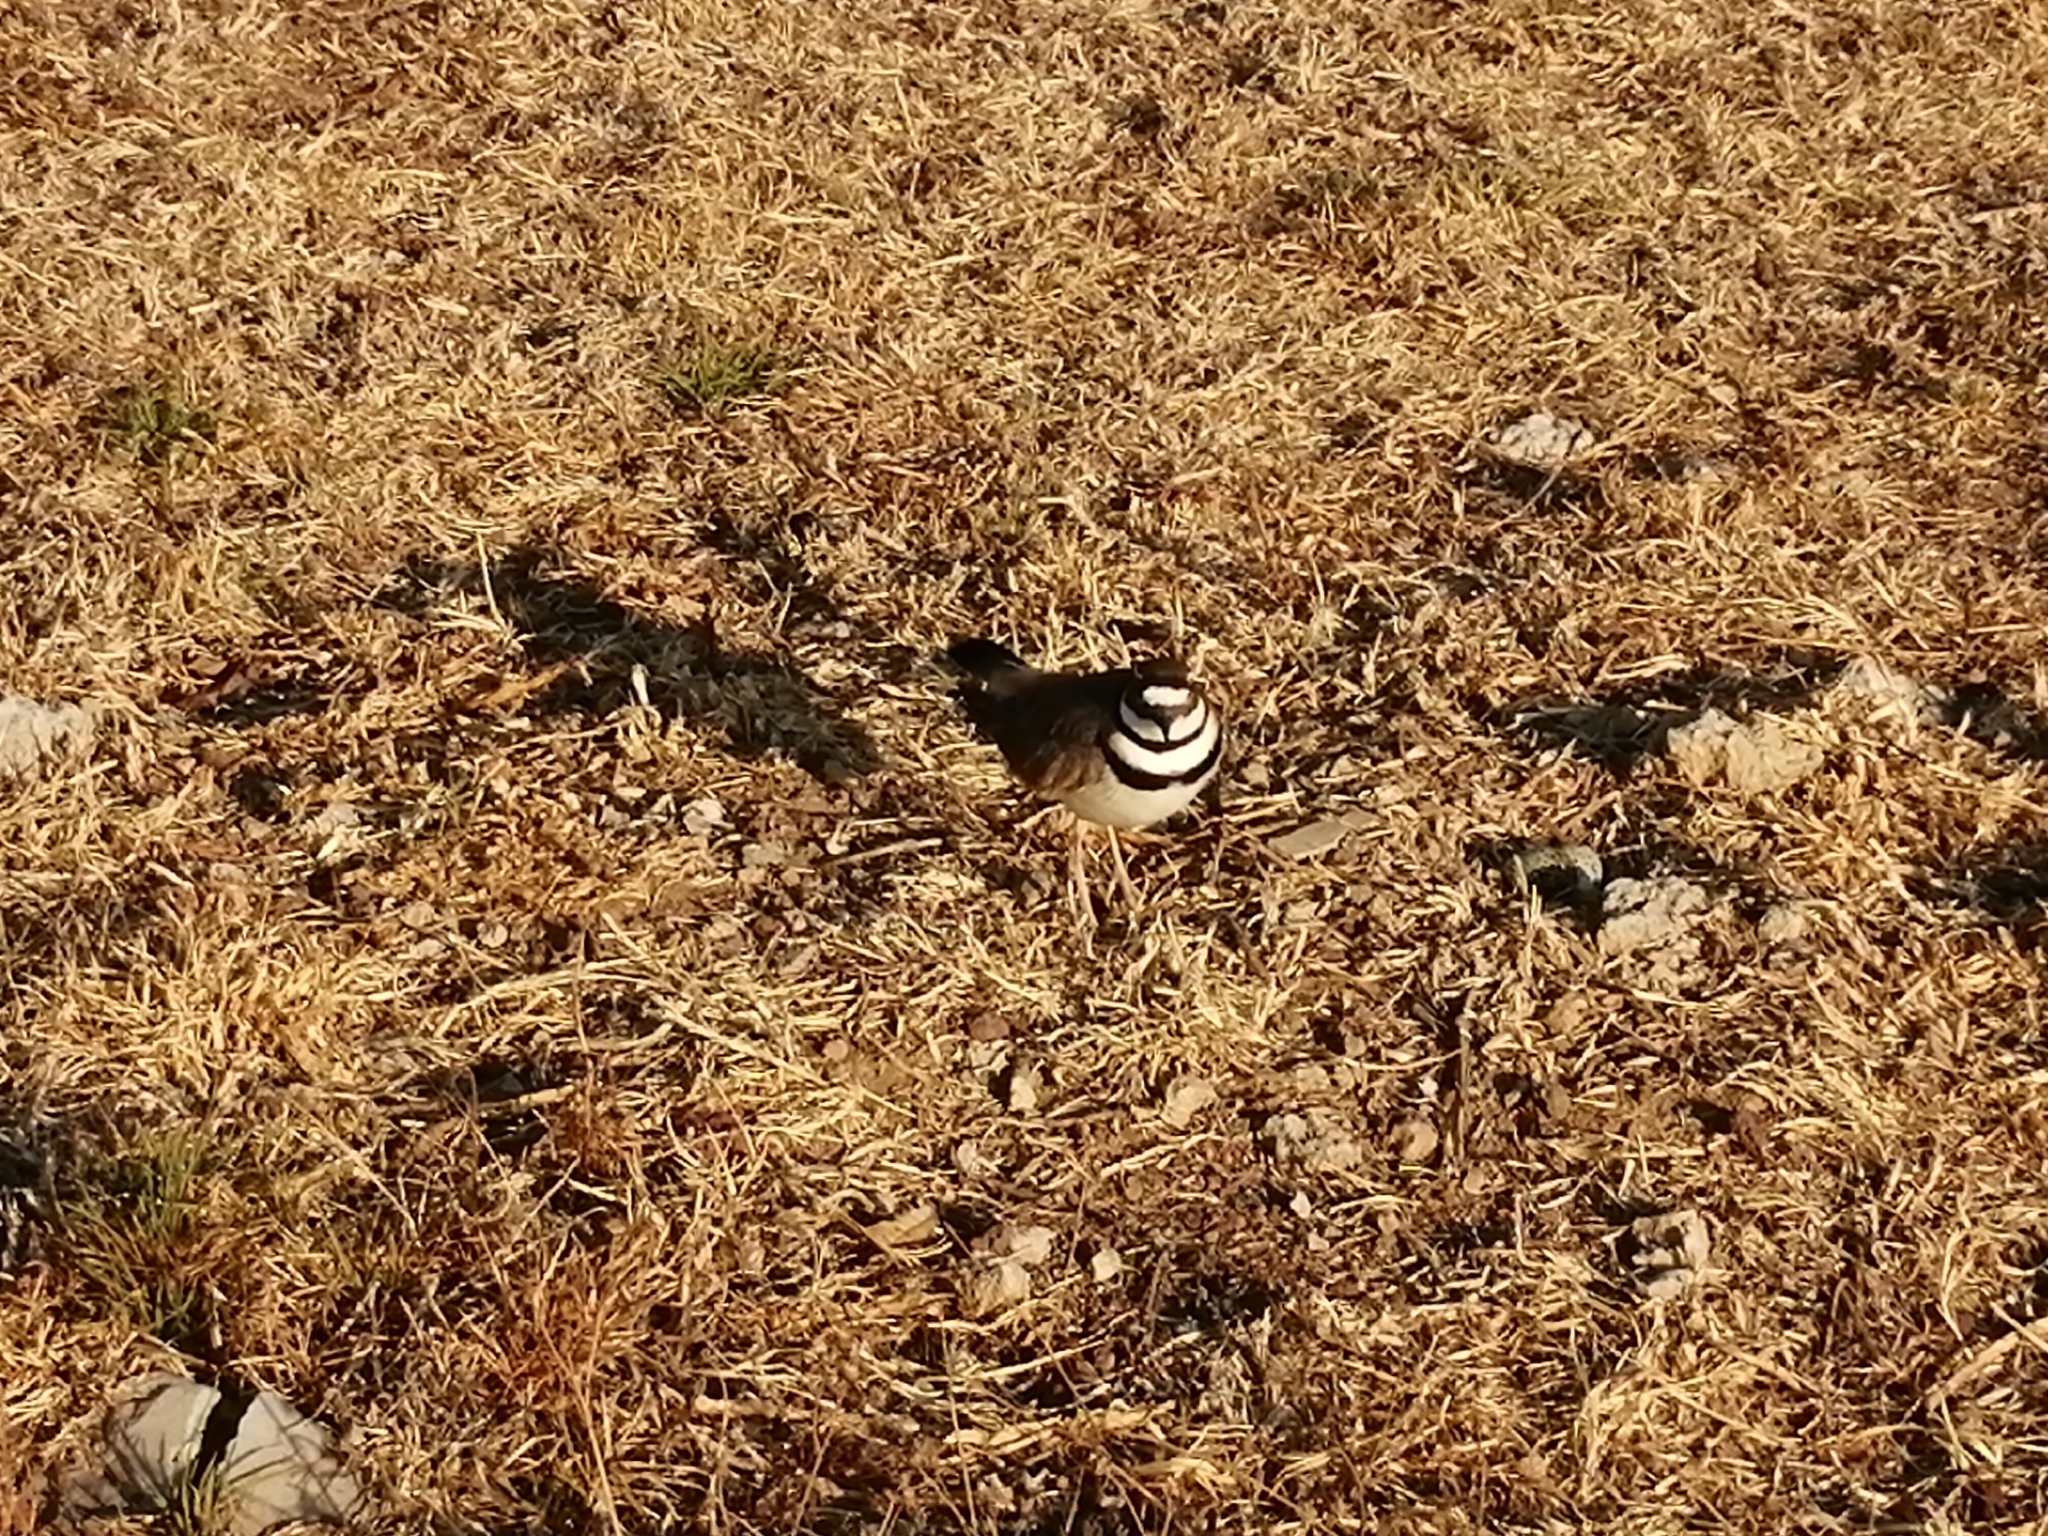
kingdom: Animalia
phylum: Chordata
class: Aves
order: Charadriiformes
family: Charadriidae
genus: Charadrius
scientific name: Charadrius vociferus
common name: Killdeer
